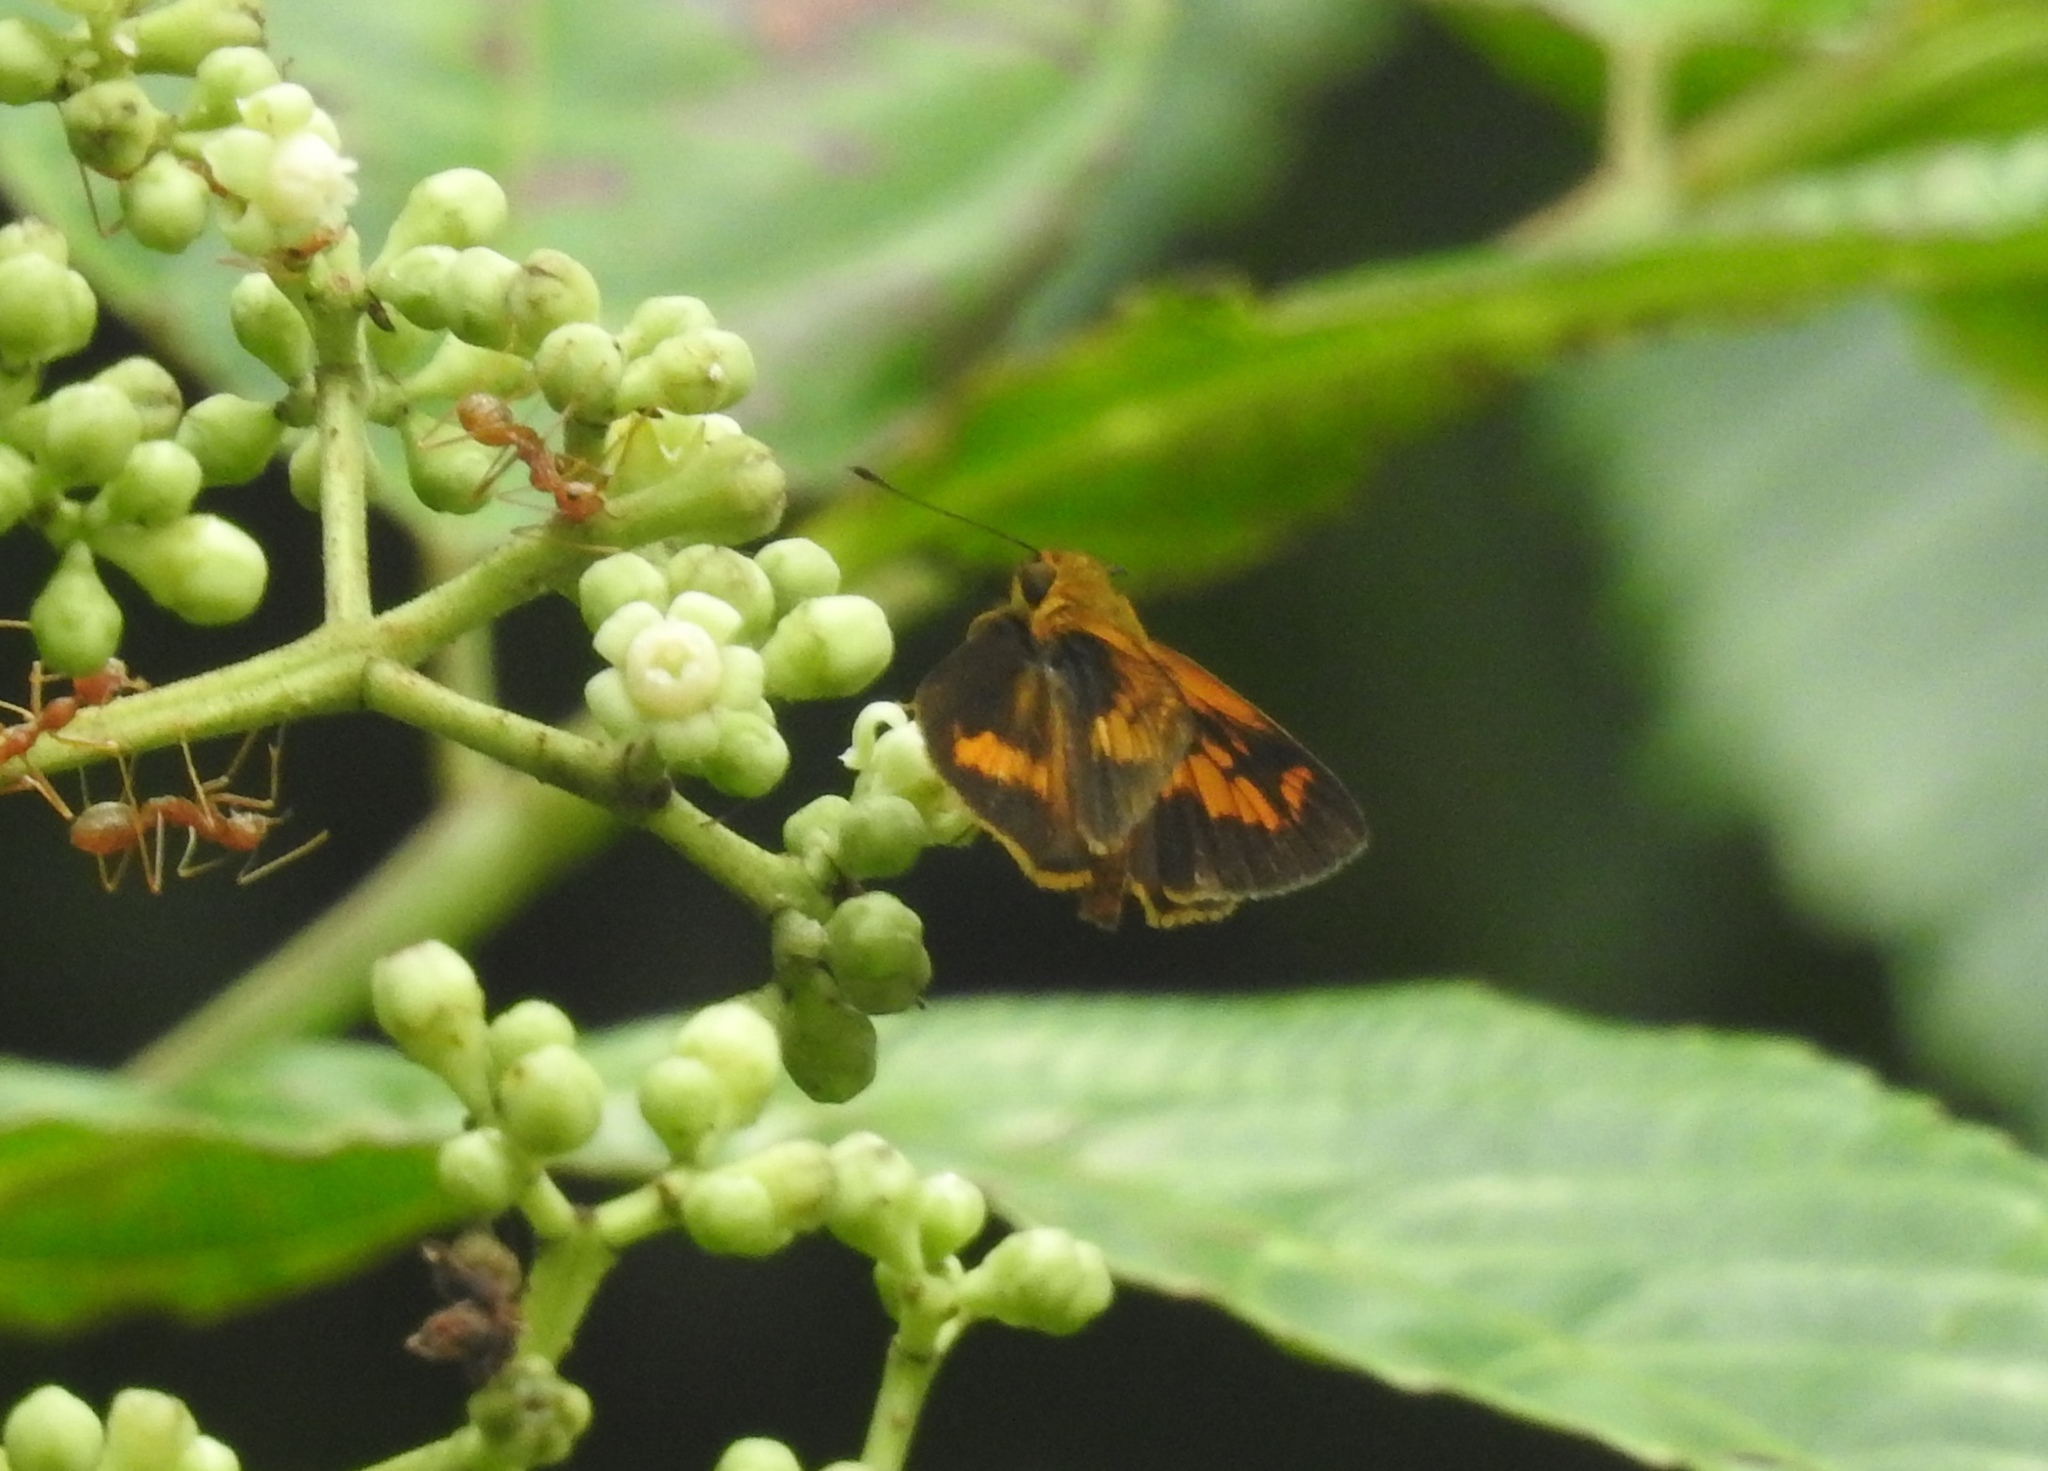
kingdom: Animalia
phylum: Arthropoda
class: Insecta
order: Lepidoptera
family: Hesperiidae
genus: Oriens
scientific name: Oriens goloides
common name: Smaller dartlet
